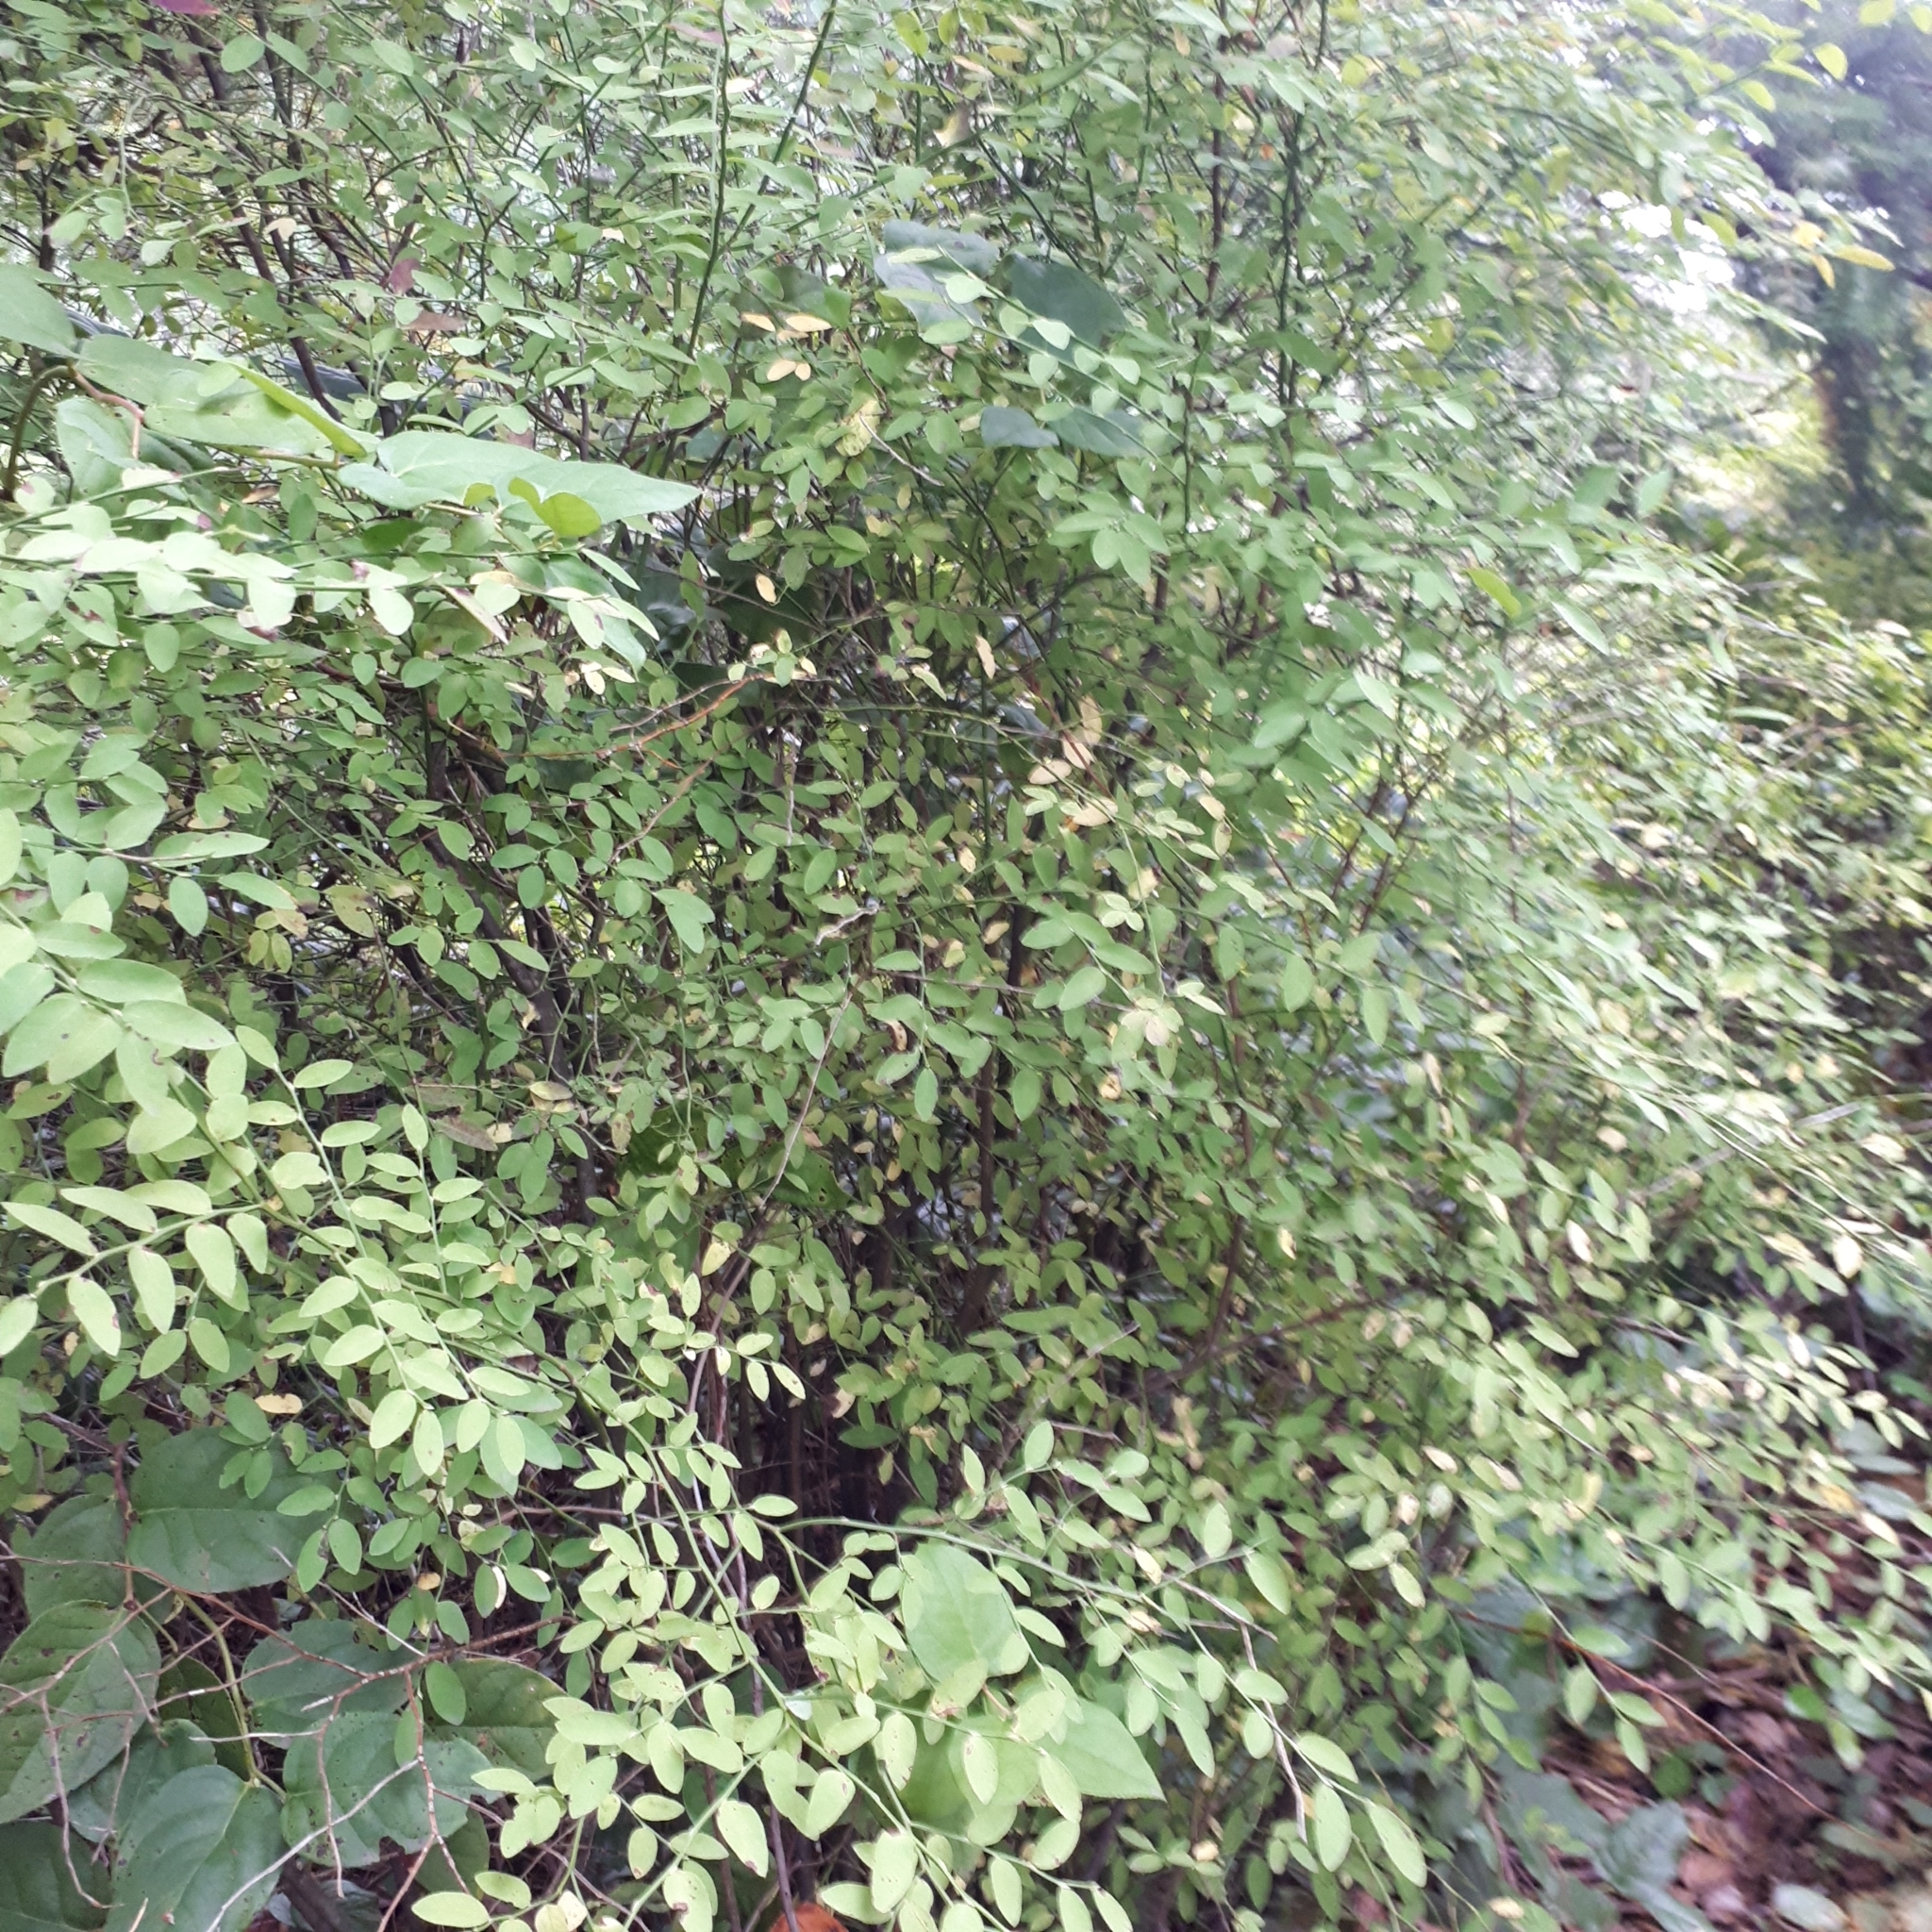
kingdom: Plantae
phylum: Tracheophyta
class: Magnoliopsida
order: Ericales
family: Ericaceae
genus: Vaccinium
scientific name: Vaccinium parvifolium
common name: Red-huckleberry
